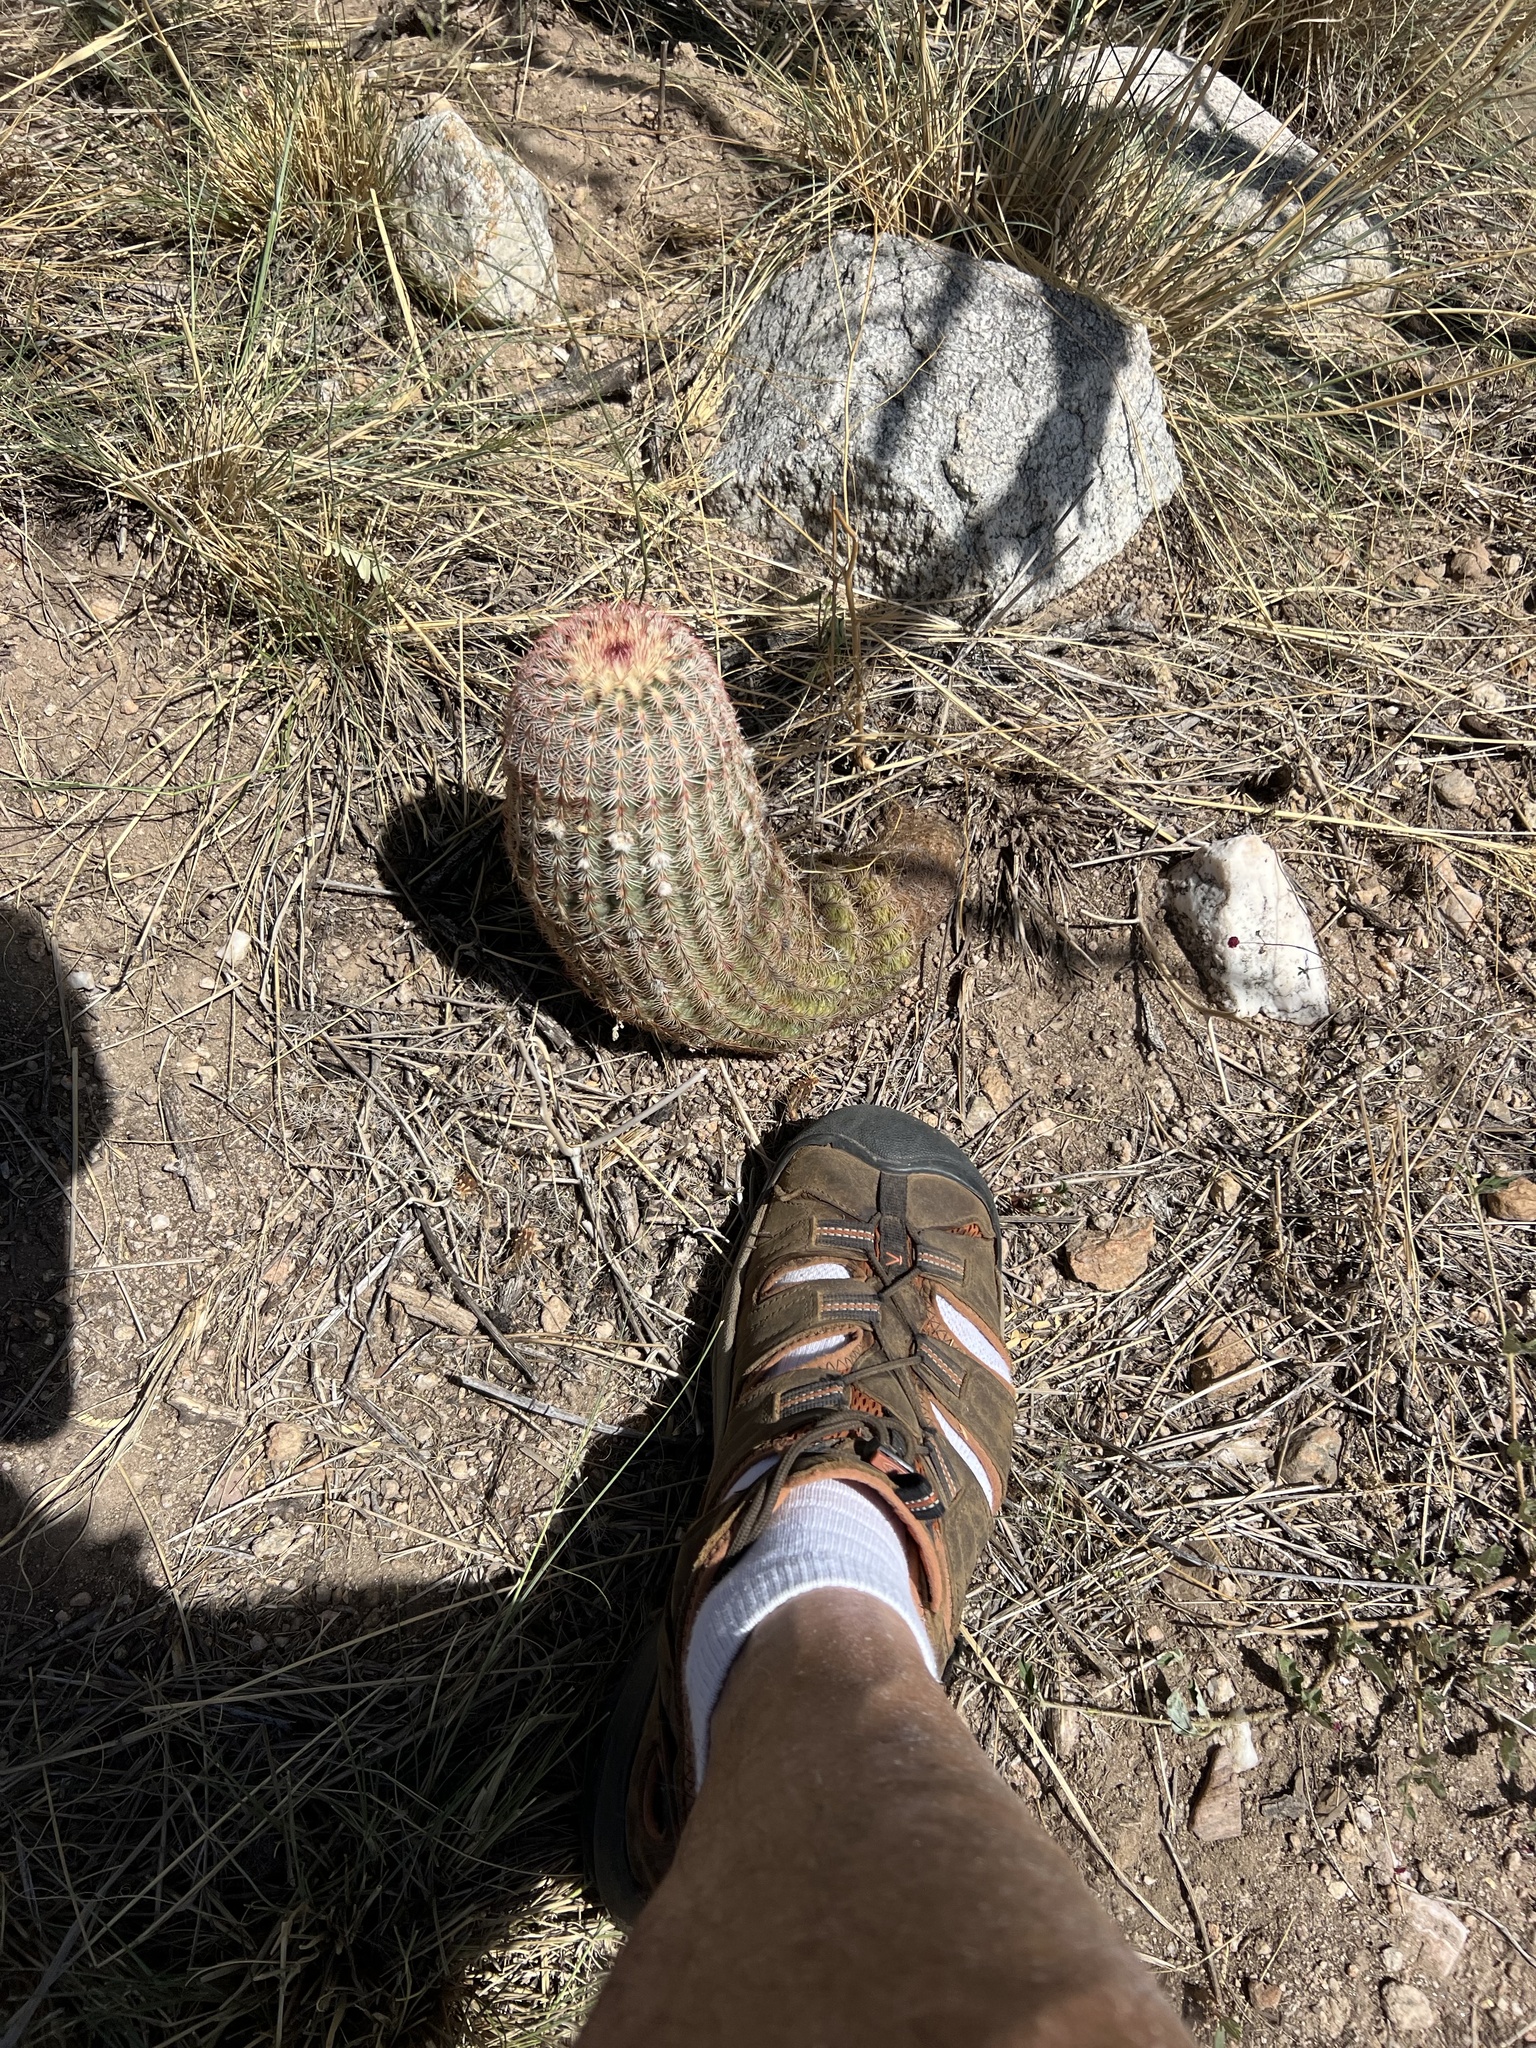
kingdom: Plantae
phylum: Tracheophyta
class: Magnoliopsida
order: Caryophyllales
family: Cactaceae
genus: Echinocereus
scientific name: Echinocereus rigidissimus
